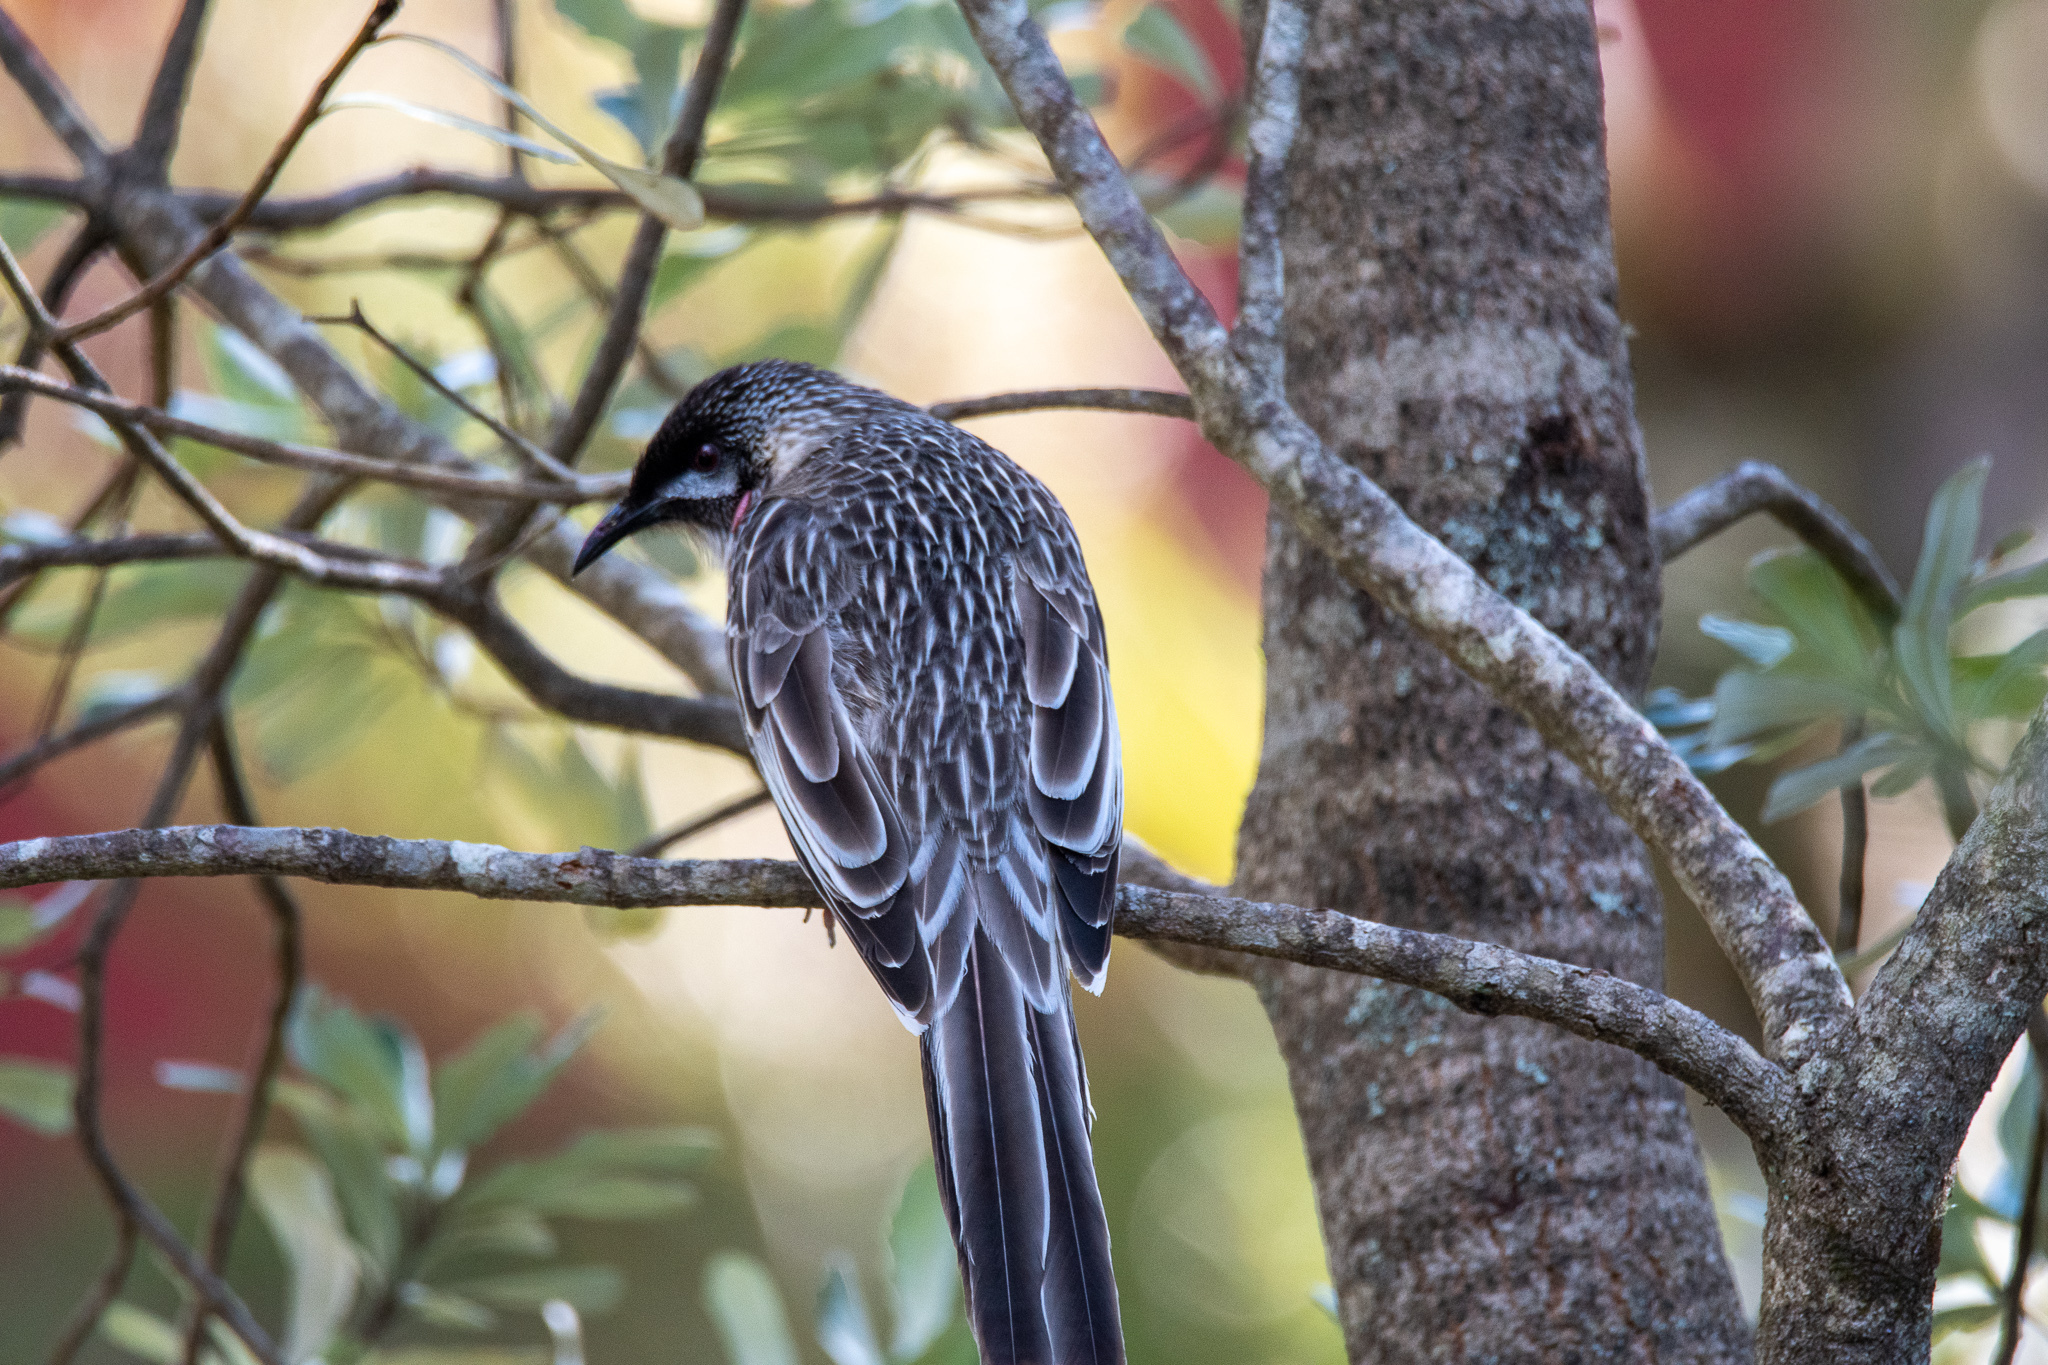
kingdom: Animalia
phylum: Chordata
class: Aves
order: Passeriformes
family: Meliphagidae
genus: Anthochaera
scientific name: Anthochaera carunculata
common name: Red wattlebird
